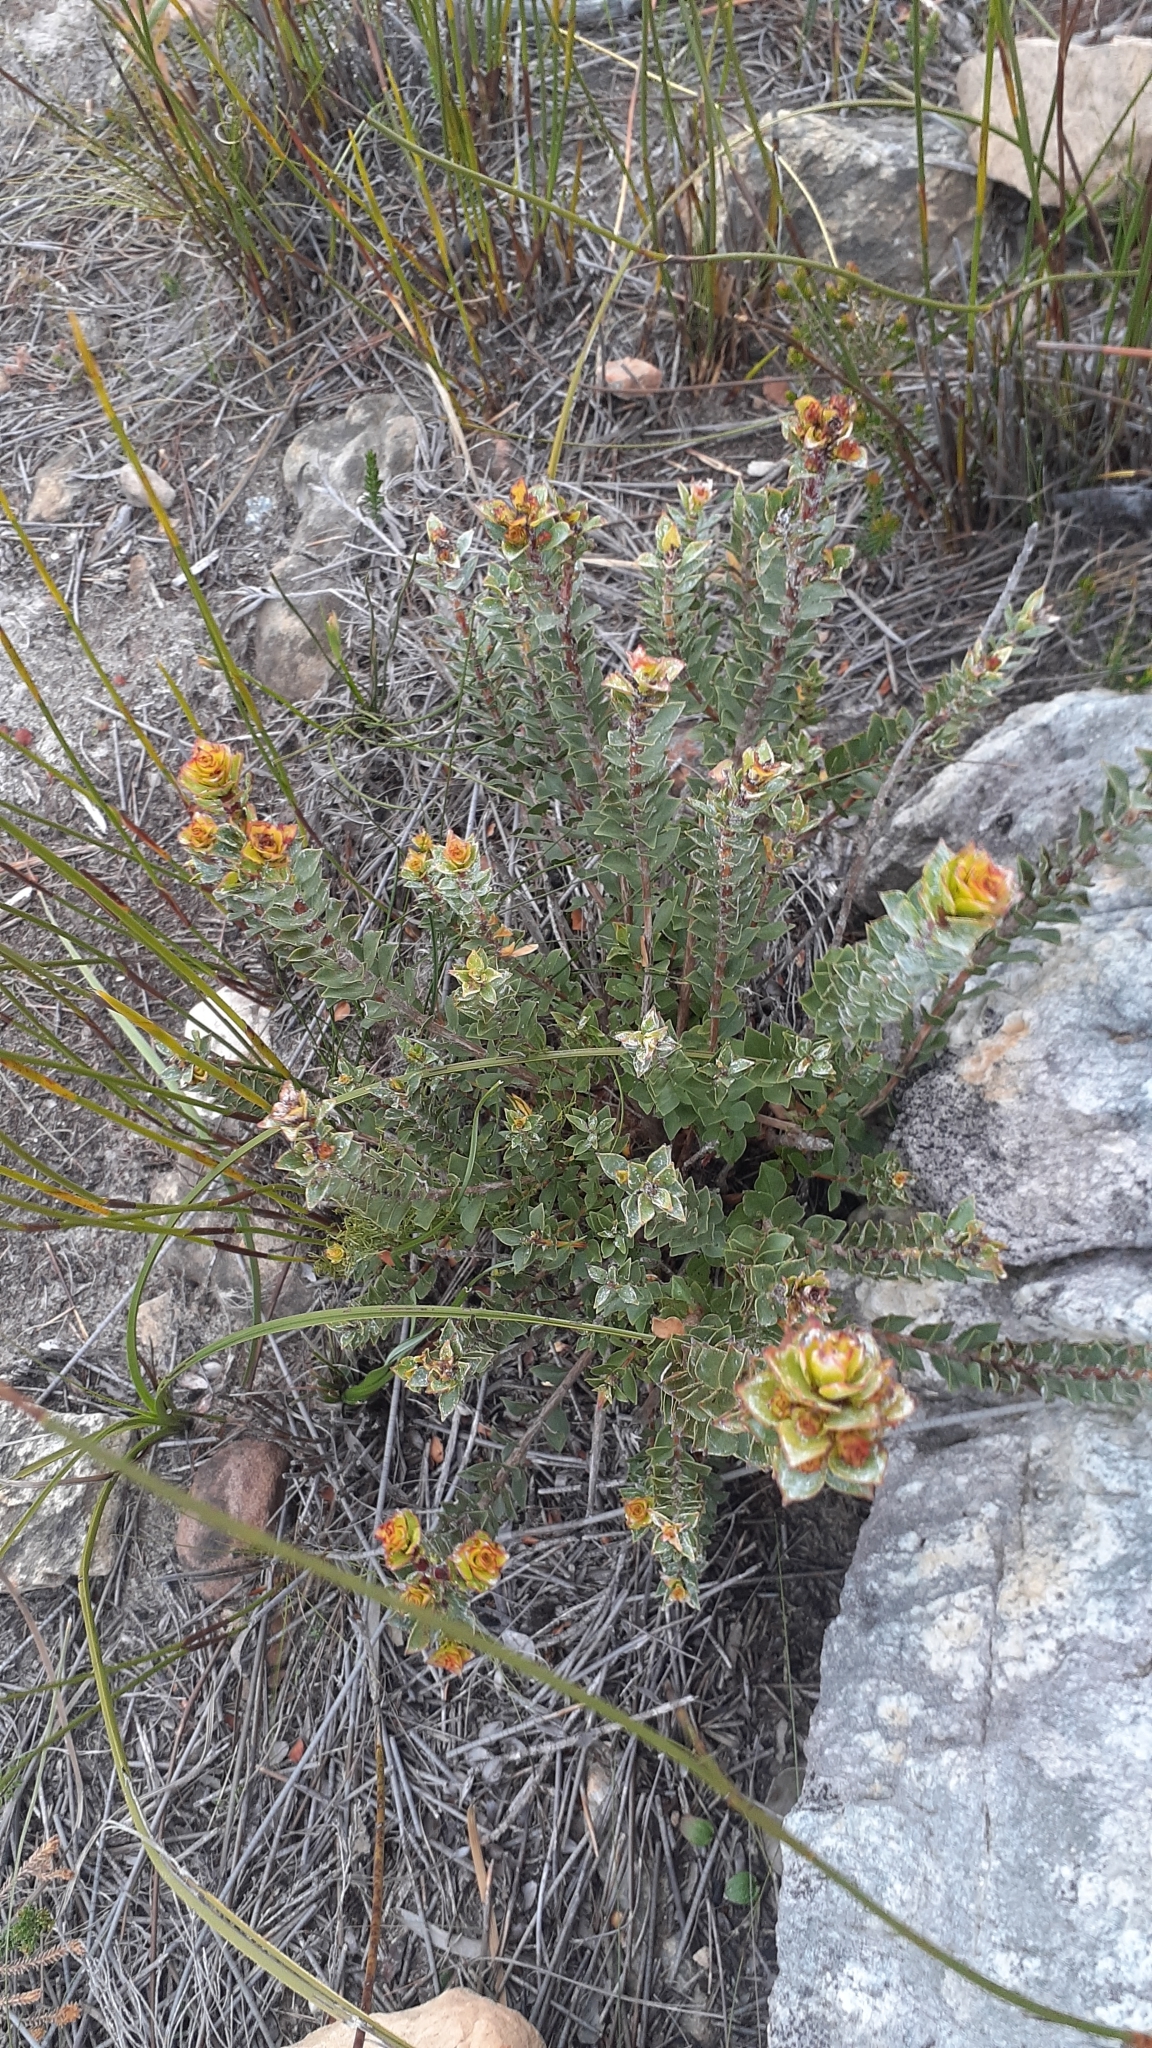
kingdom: Plantae
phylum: Tracheophyta
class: Magnoliopsida
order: Myrtales
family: Penaeaceae
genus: Saltera
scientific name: Saltera sarcocolla
